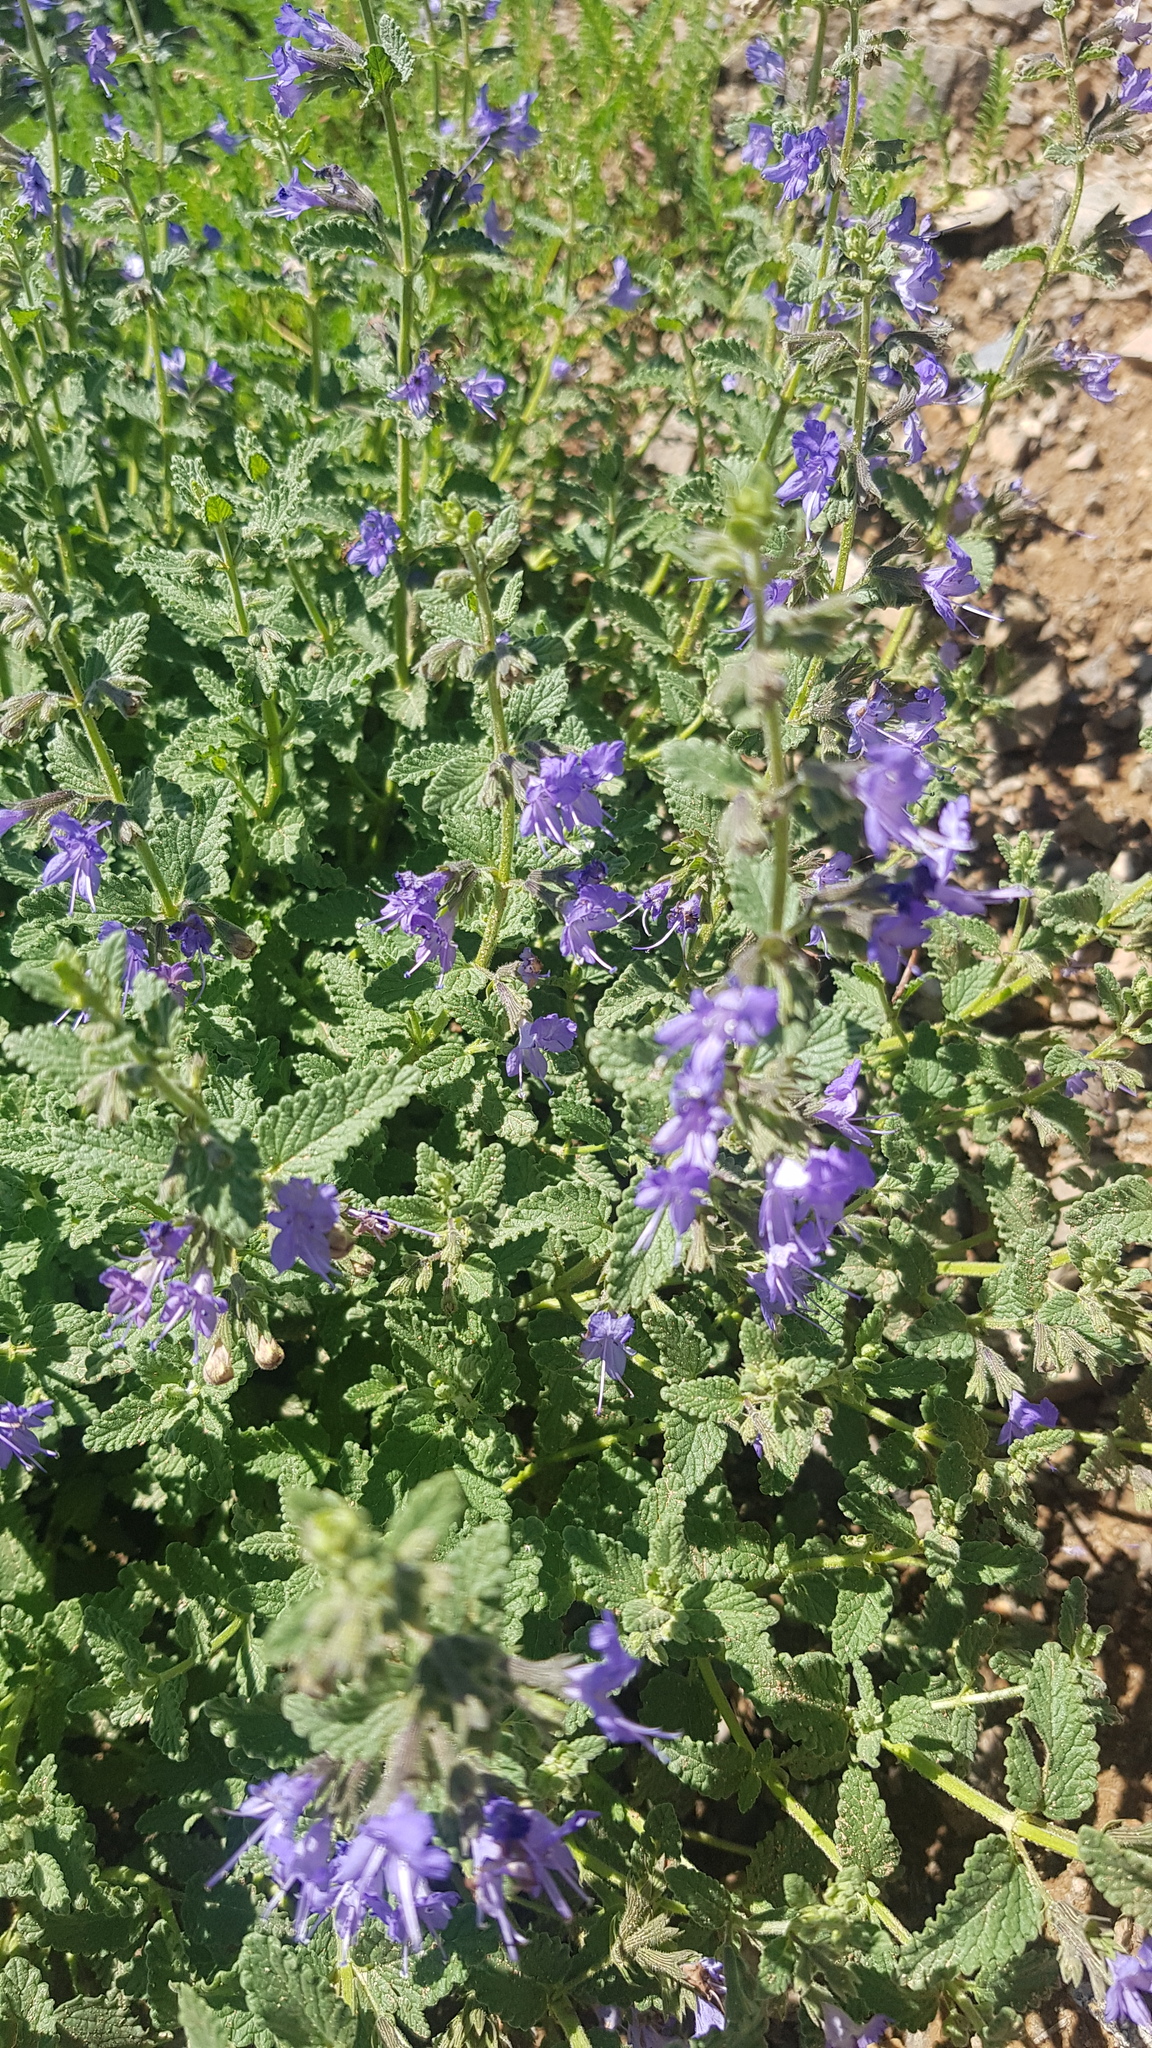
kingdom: Plantae
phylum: Tracheophyta
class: Magnoliopsida
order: Lamiales
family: Lamiaceae
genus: Nepeta
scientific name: Nepeta lophanthus
